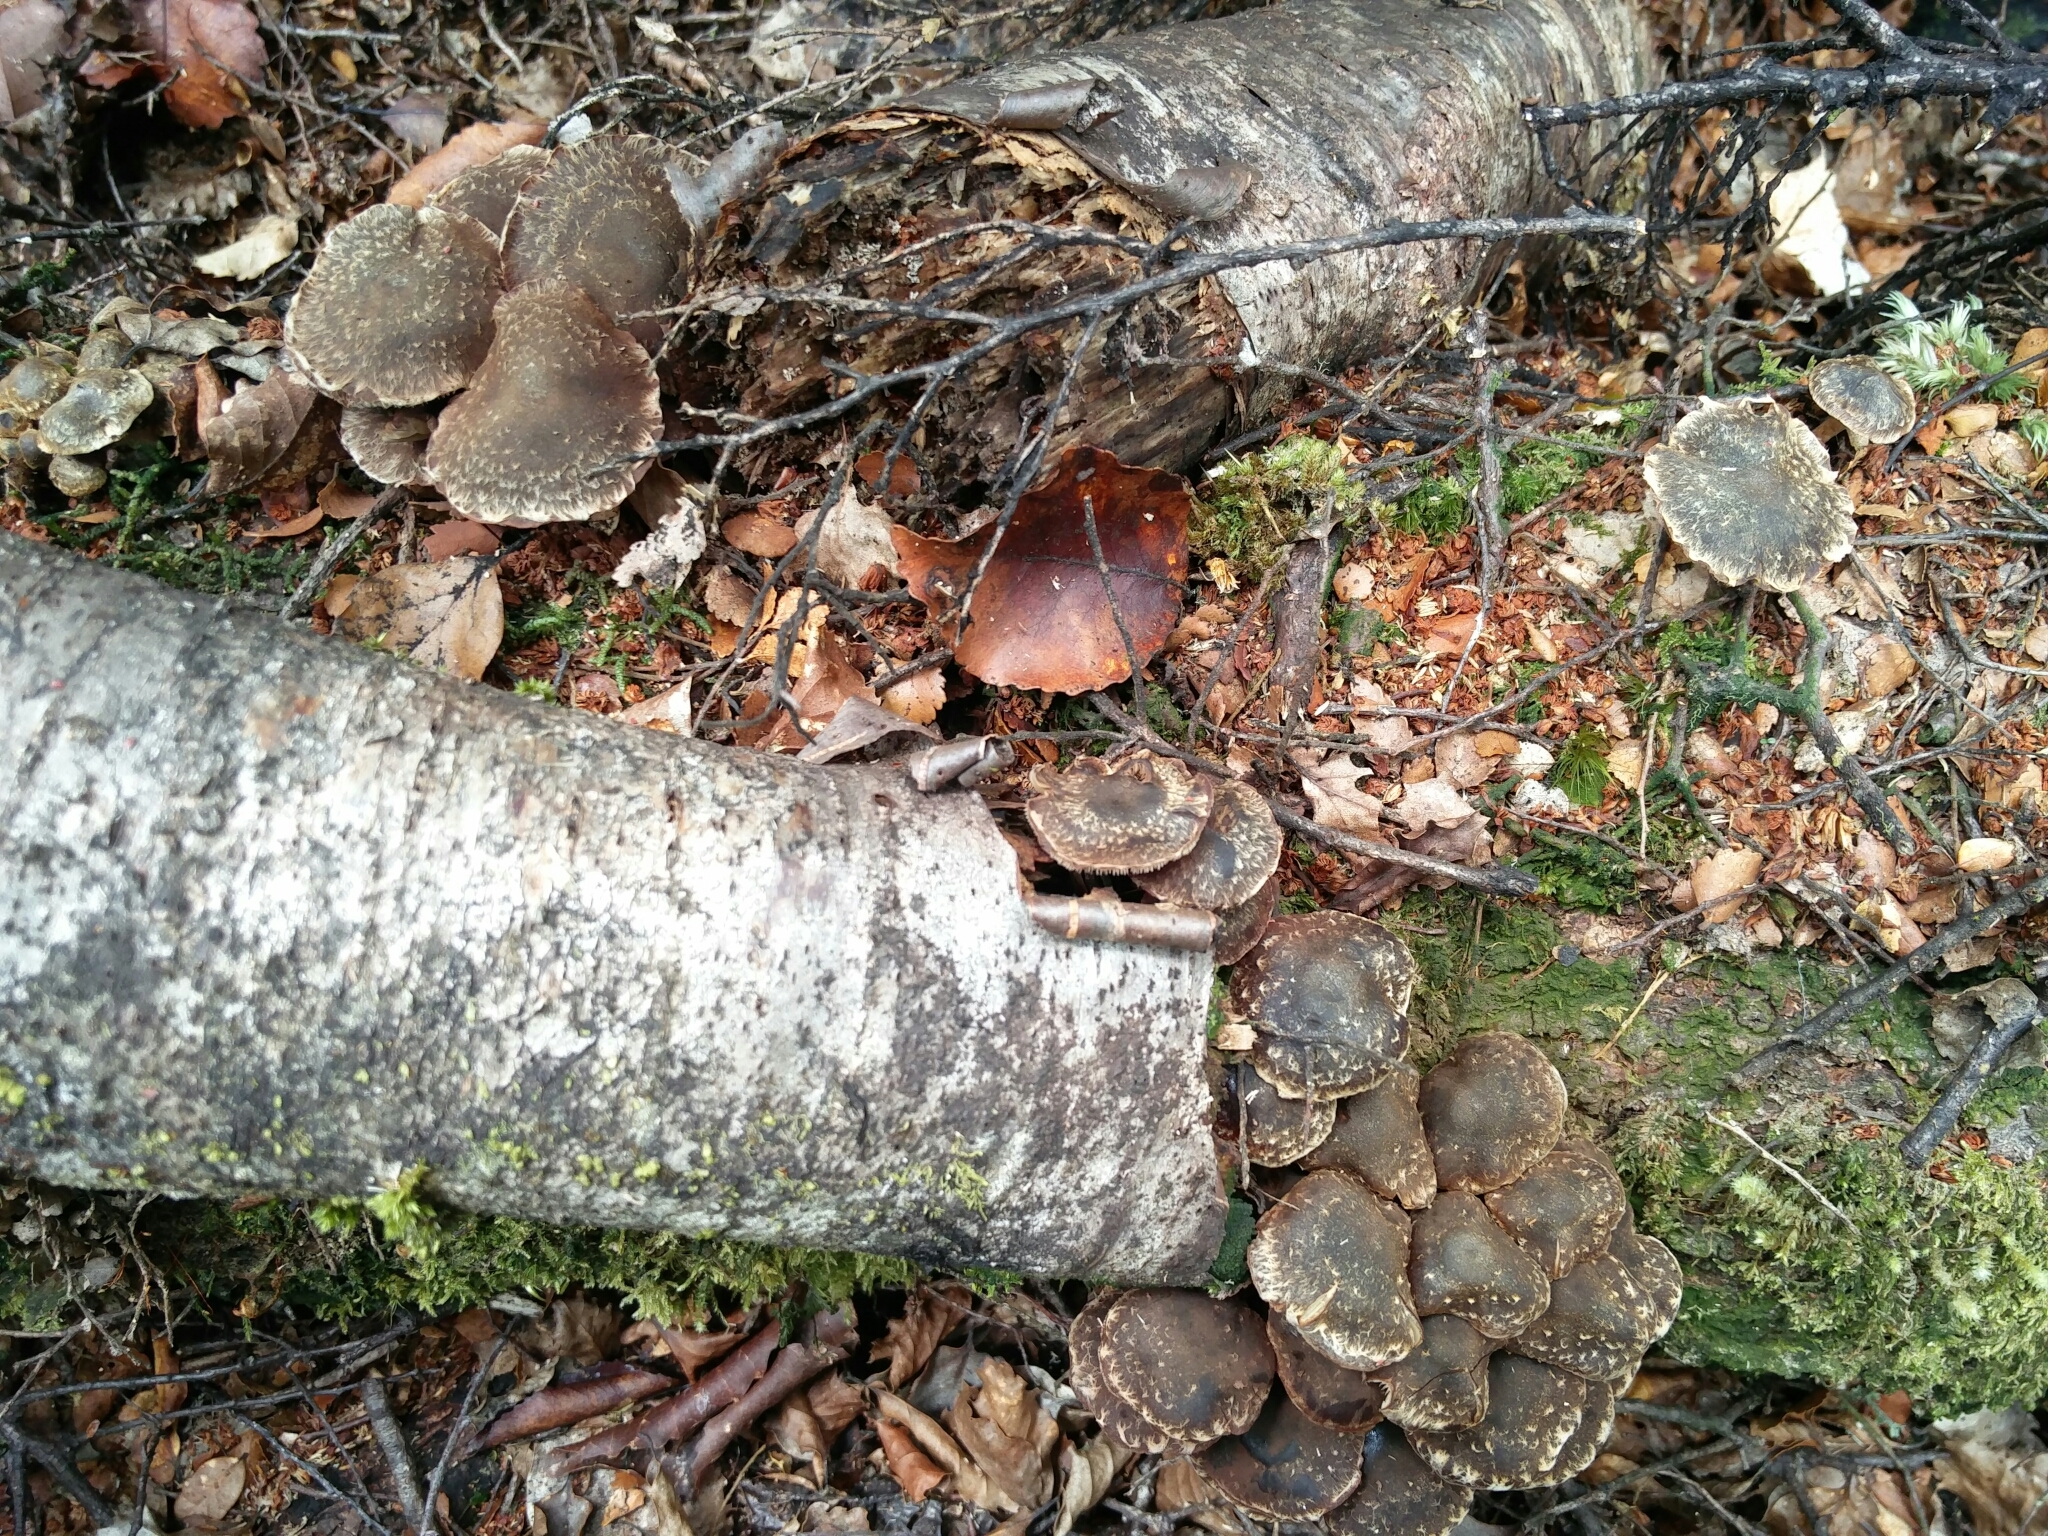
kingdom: Fungi
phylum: Basidiomycota
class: Agaricomycetes
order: Agaricales
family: Strophariaceae
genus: Hypholoma
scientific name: Hypholoma brunneum
